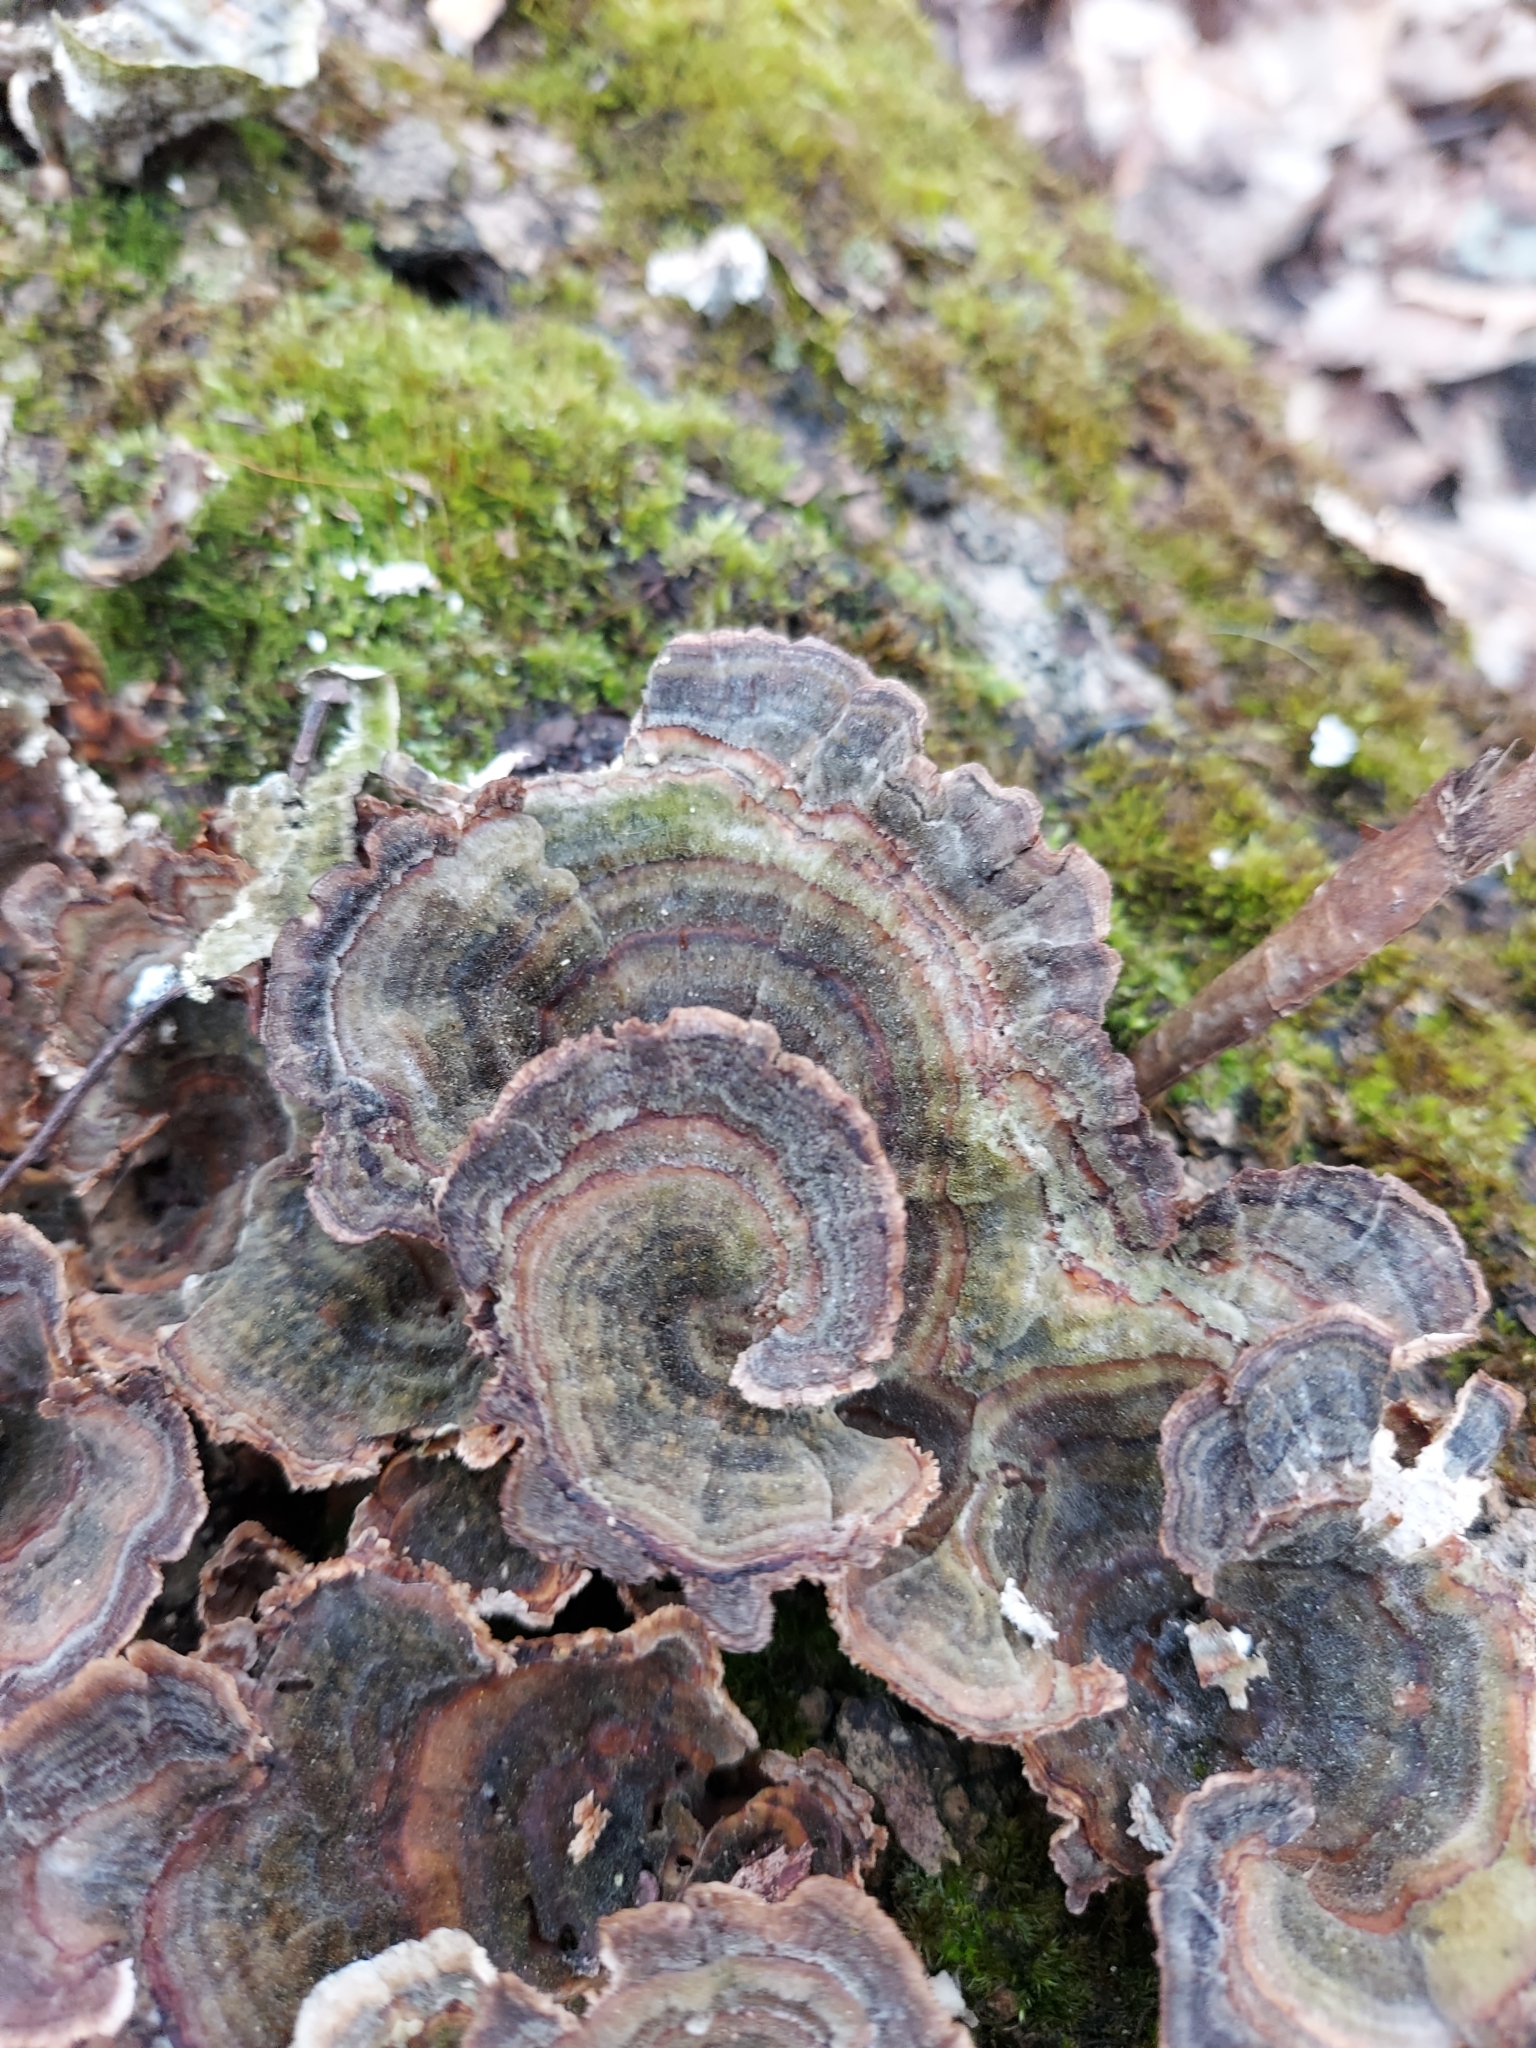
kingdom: Fungi
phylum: Basidiomycota
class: Agaricomycetes
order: Polyporales
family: Polyporaceae
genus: Trametes
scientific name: Trametes versicolor
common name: Turkeytail
